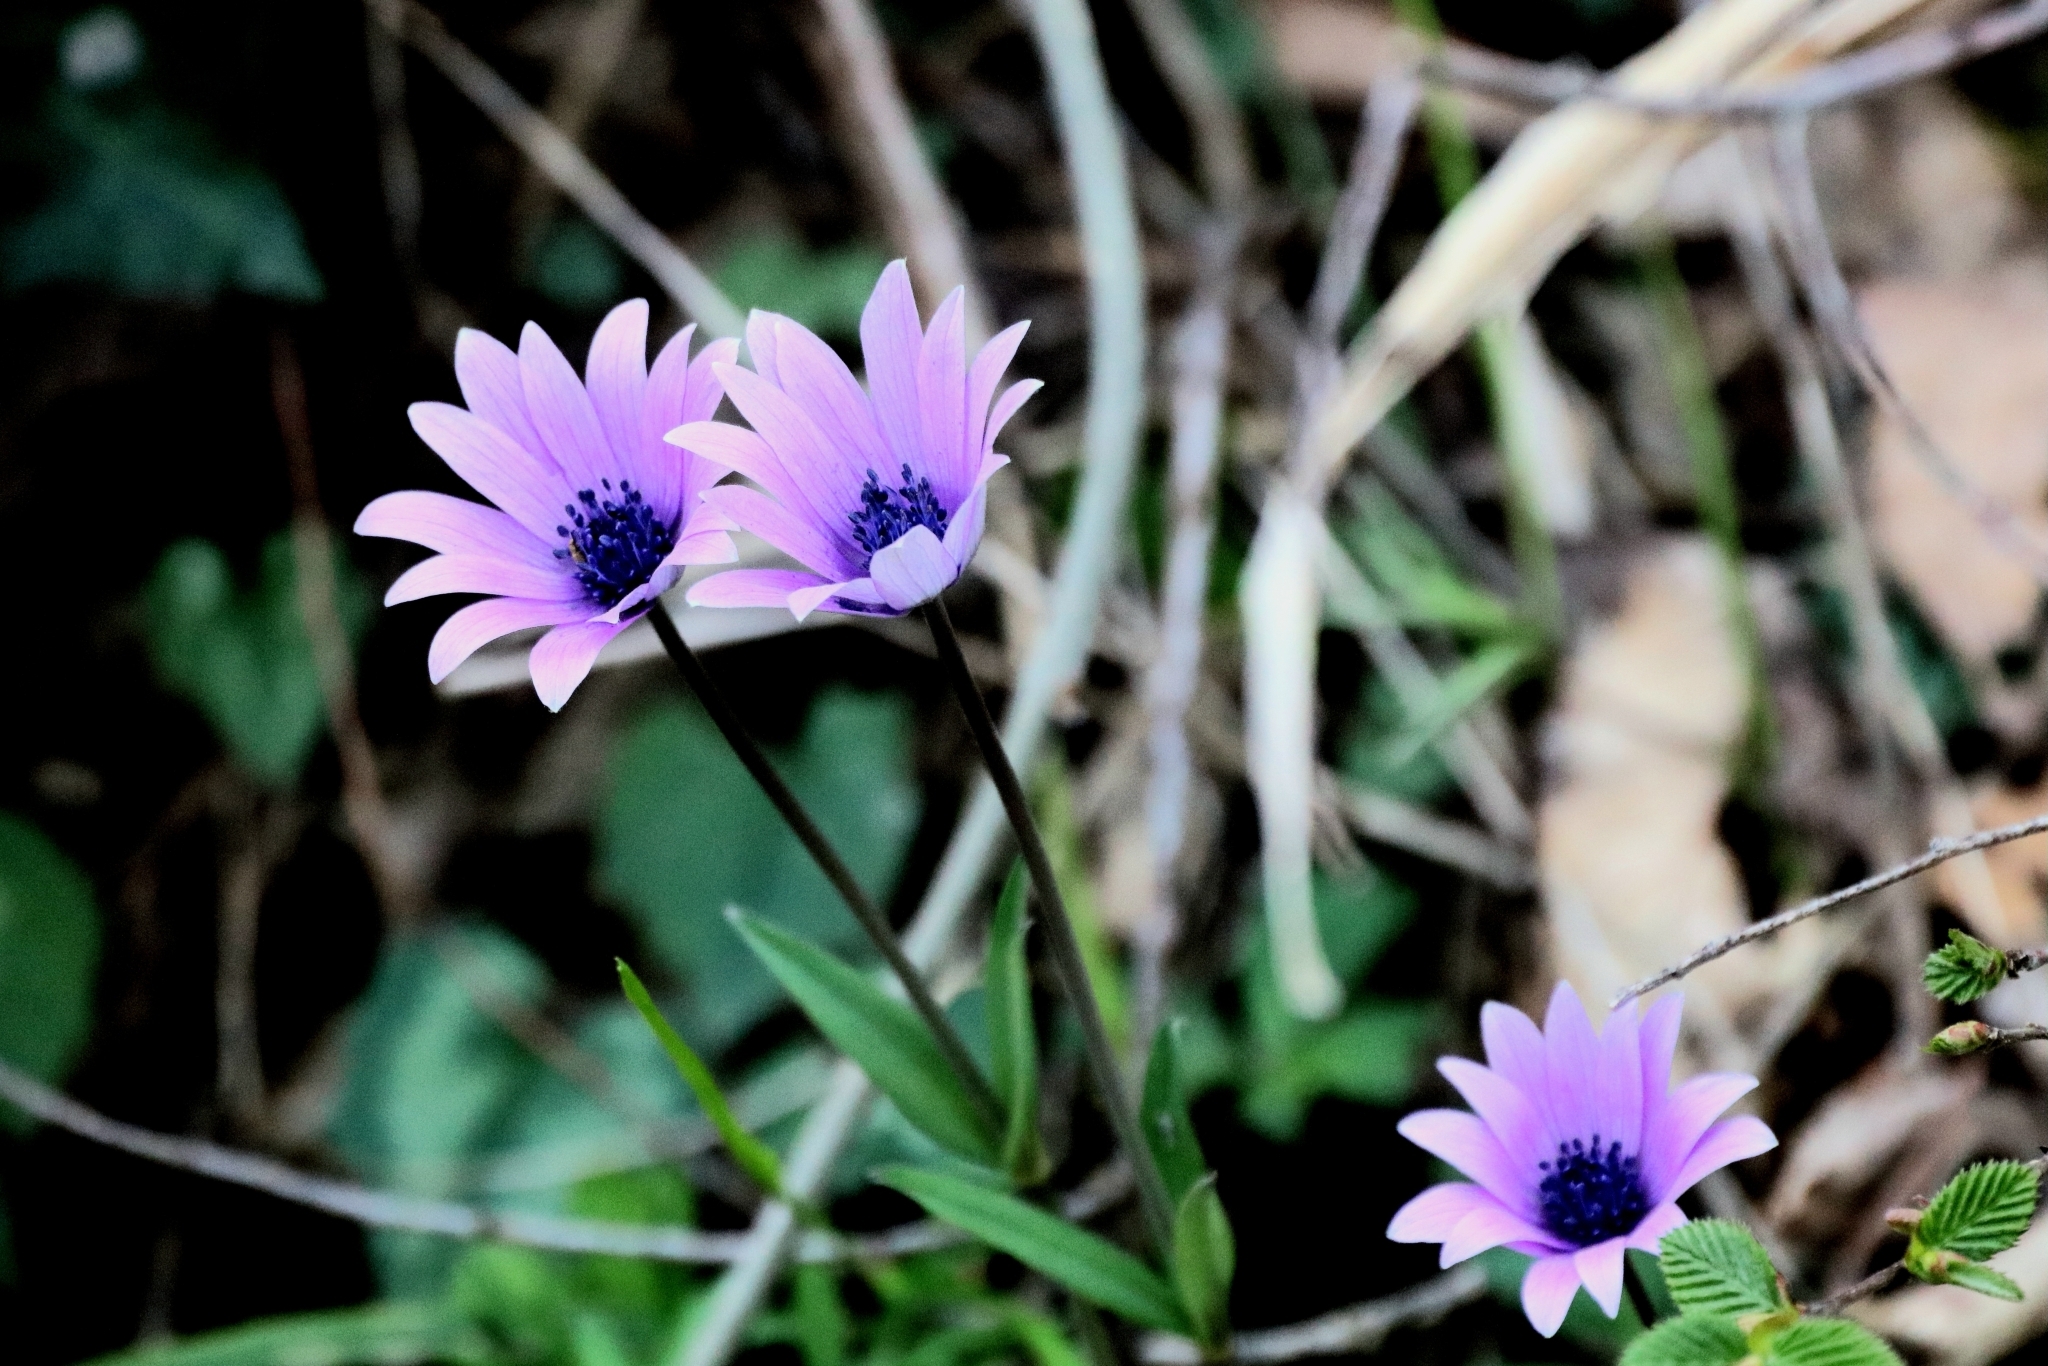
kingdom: Plantae
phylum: Tracheophyta
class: Magnoliopsida
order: Ranunculales
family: Ranunculaceae
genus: Anemone
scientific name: Anemone hortensis
